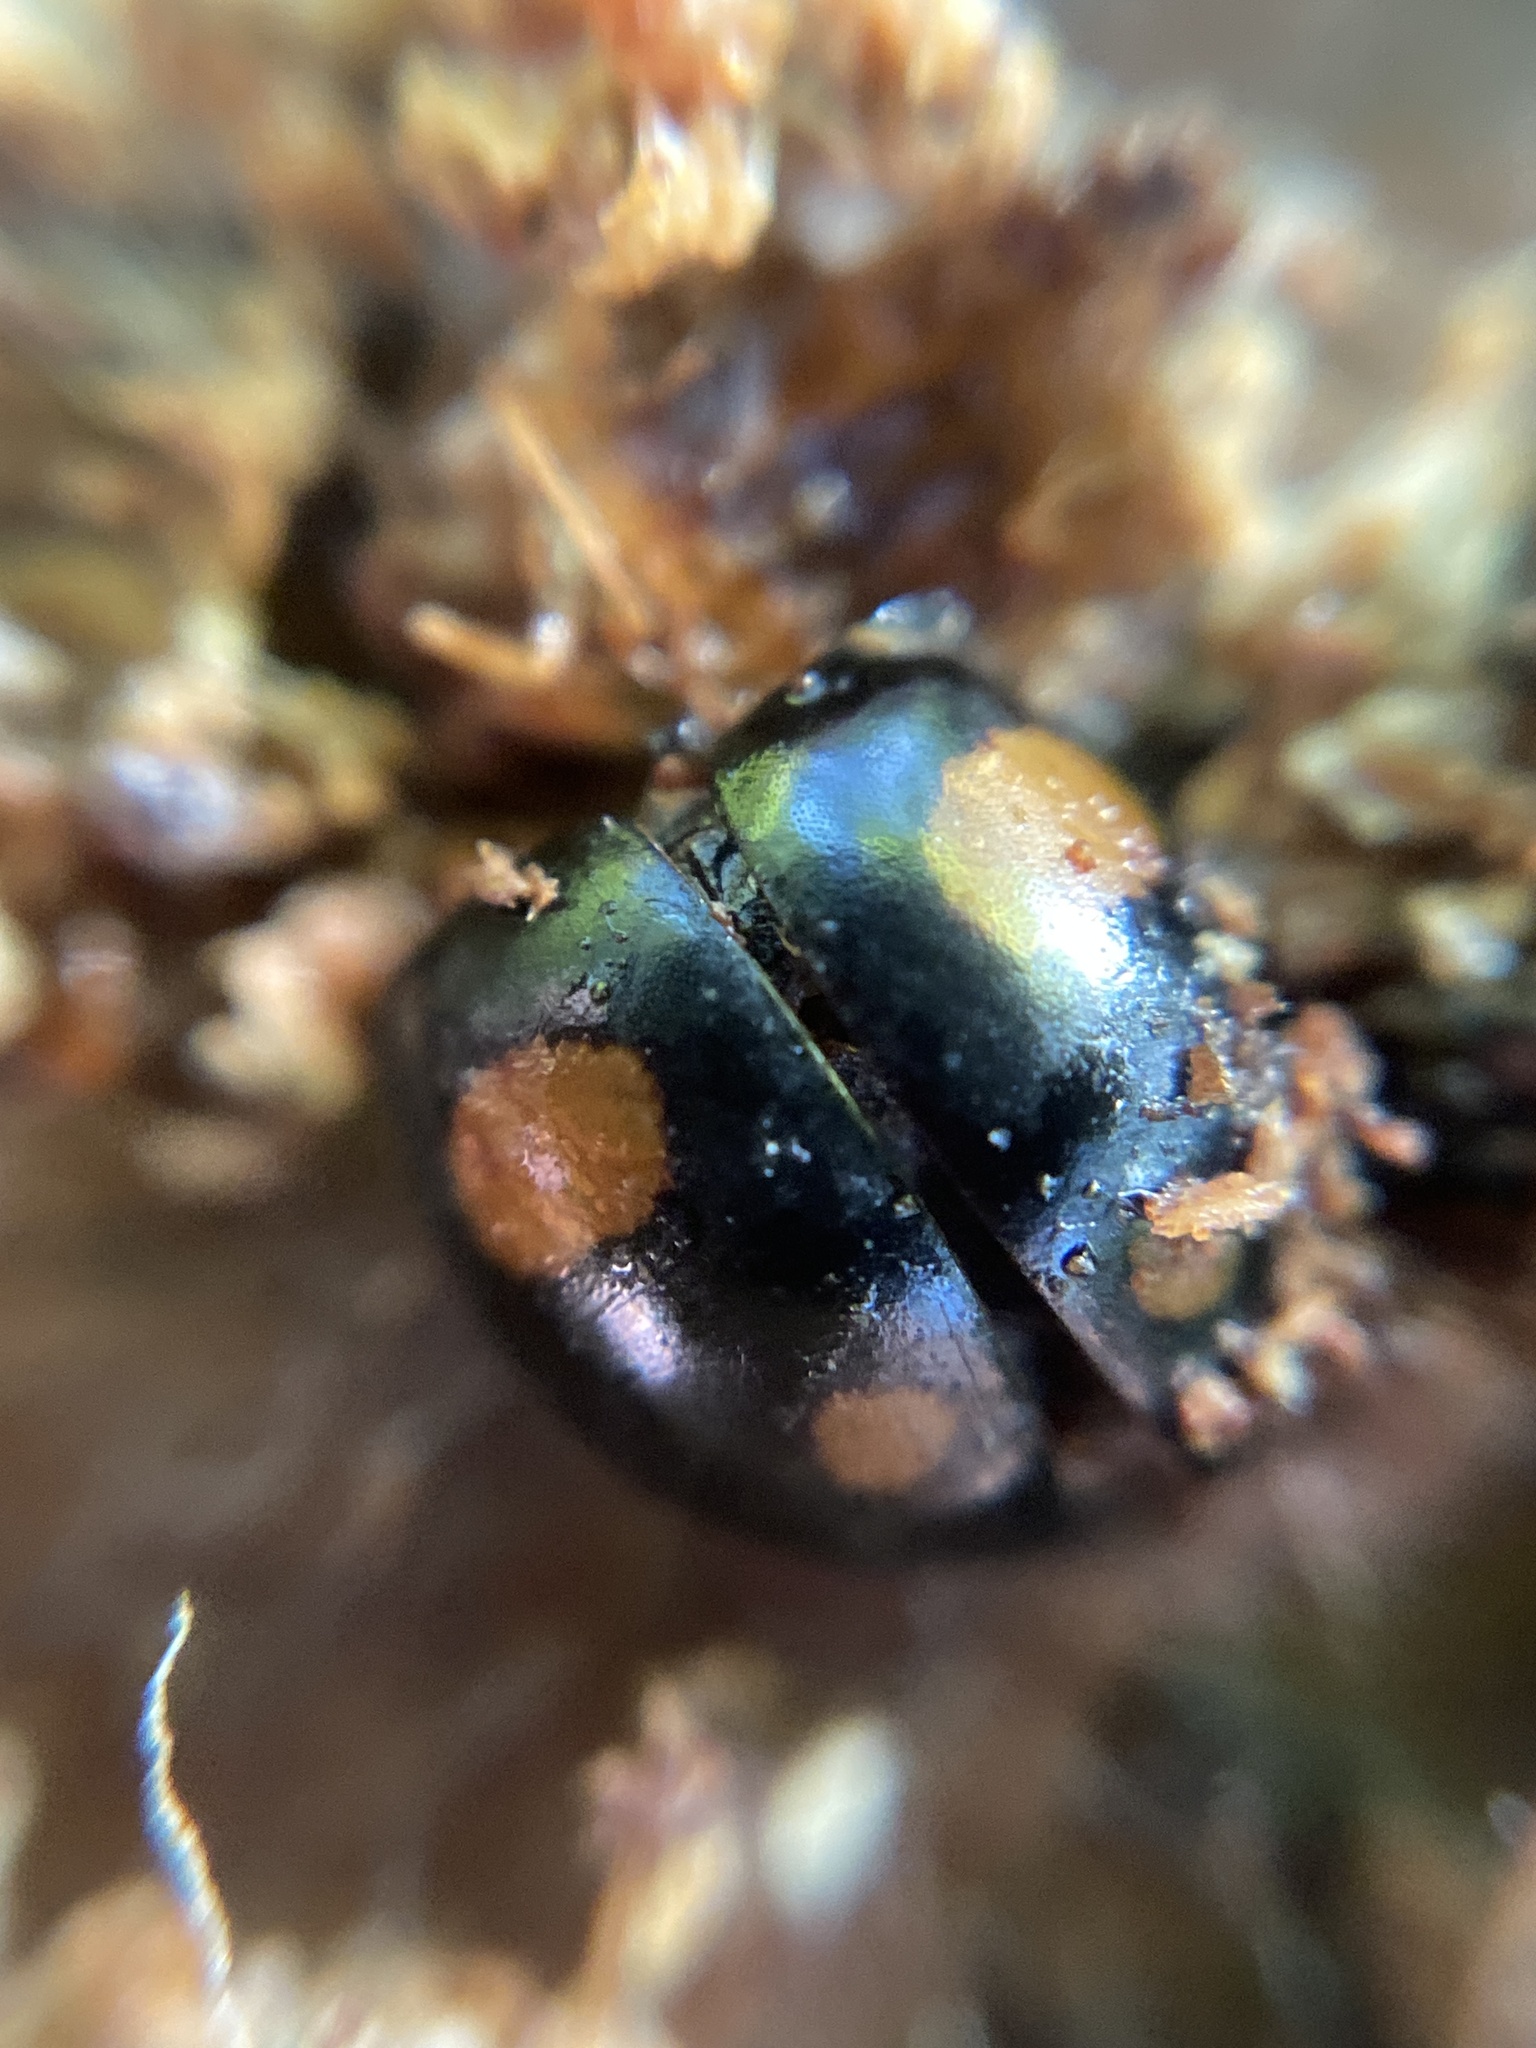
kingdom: Animalia
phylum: Arthropoda
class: Insecta
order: Coleoptera
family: Coccinellidae
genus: Platynaspis
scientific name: Platynaspis luteorubra
